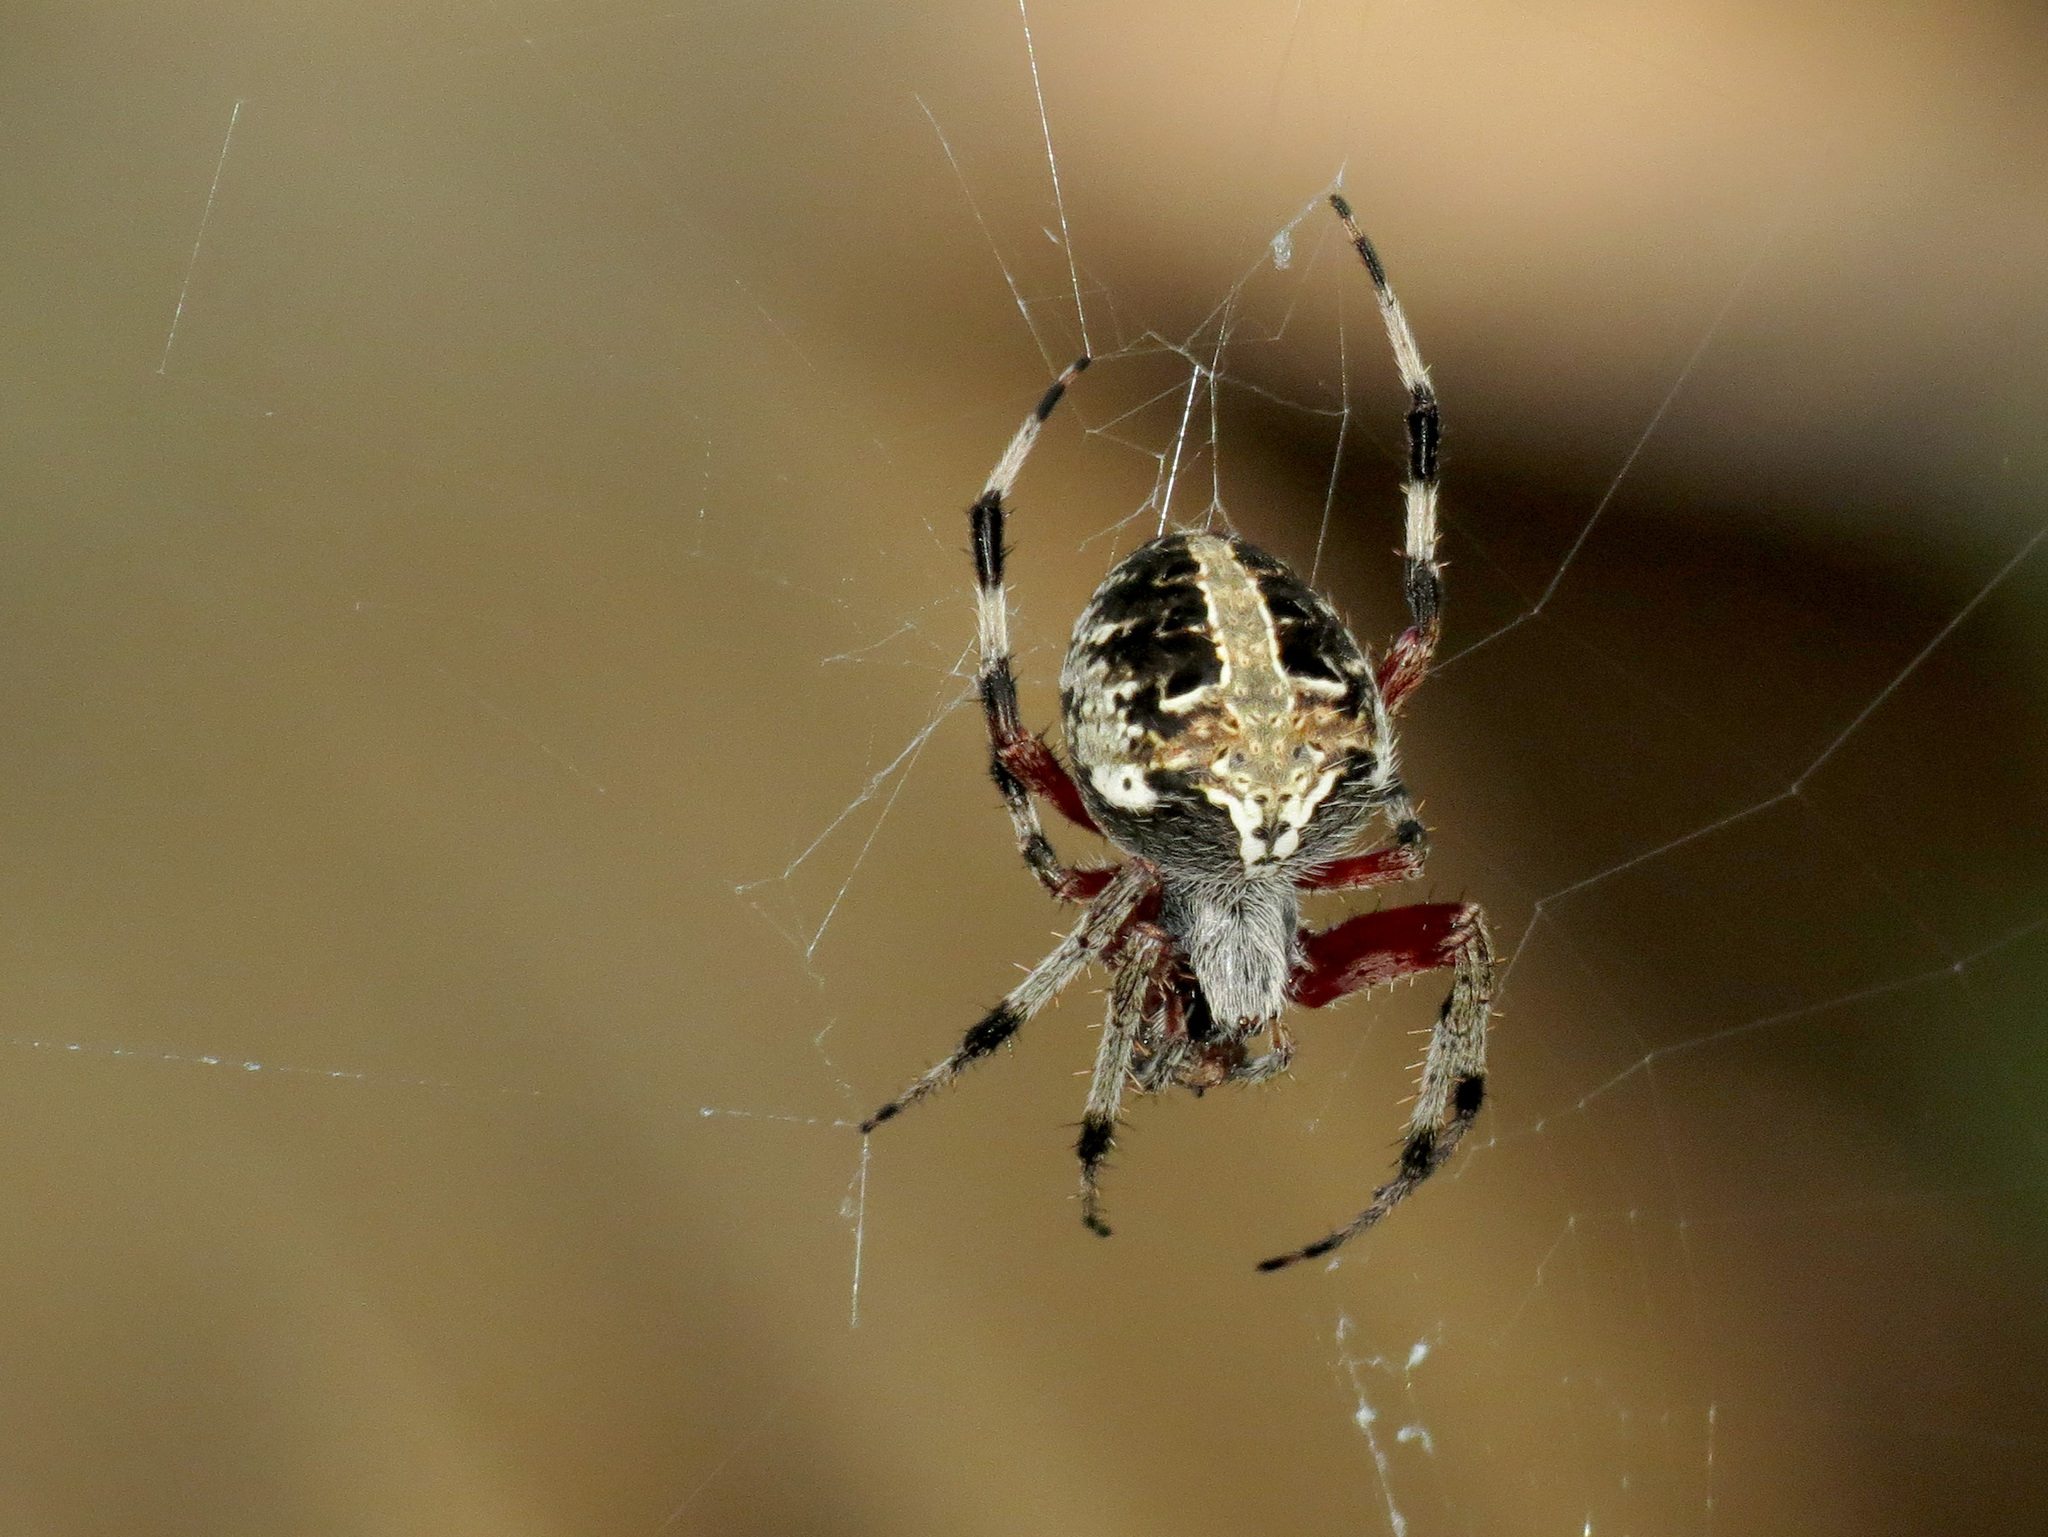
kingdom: Animalia
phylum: Arthropoda
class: Arachnida
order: Araneae
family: Araneidae
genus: Neoscona
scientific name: Neoscona domiciliorum
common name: Red-femured spotted orbweaver
